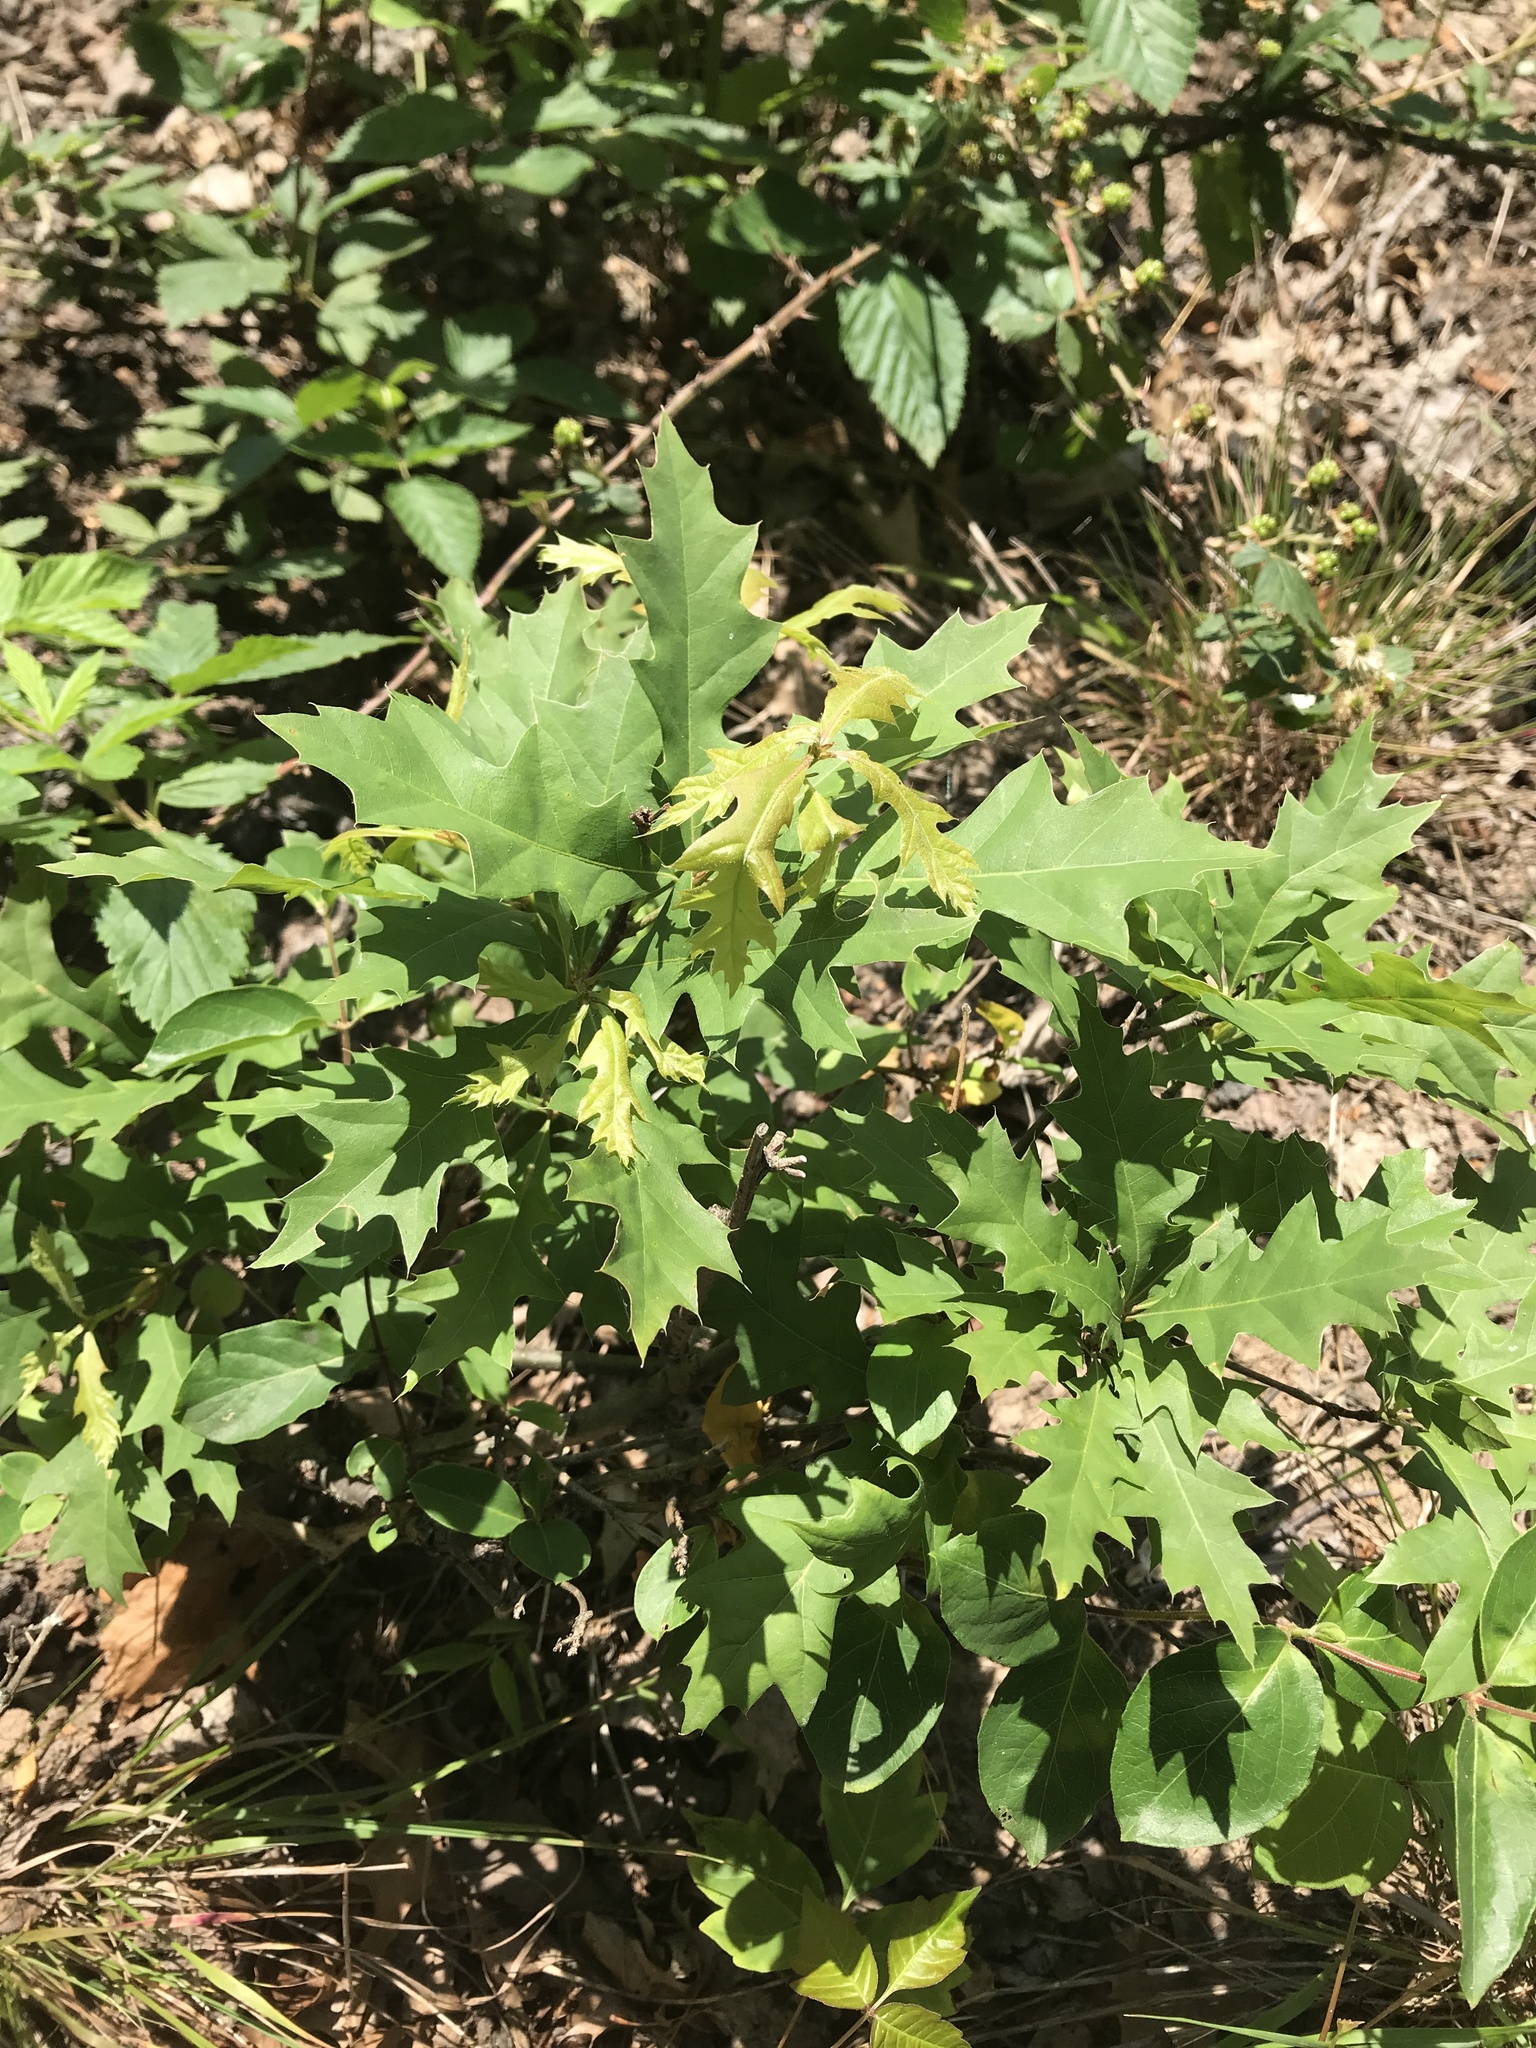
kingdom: Plantae
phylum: Tracheophyta
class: Magnoliopsida
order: Fagales
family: Fagaceae
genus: Quercus
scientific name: Quercus
